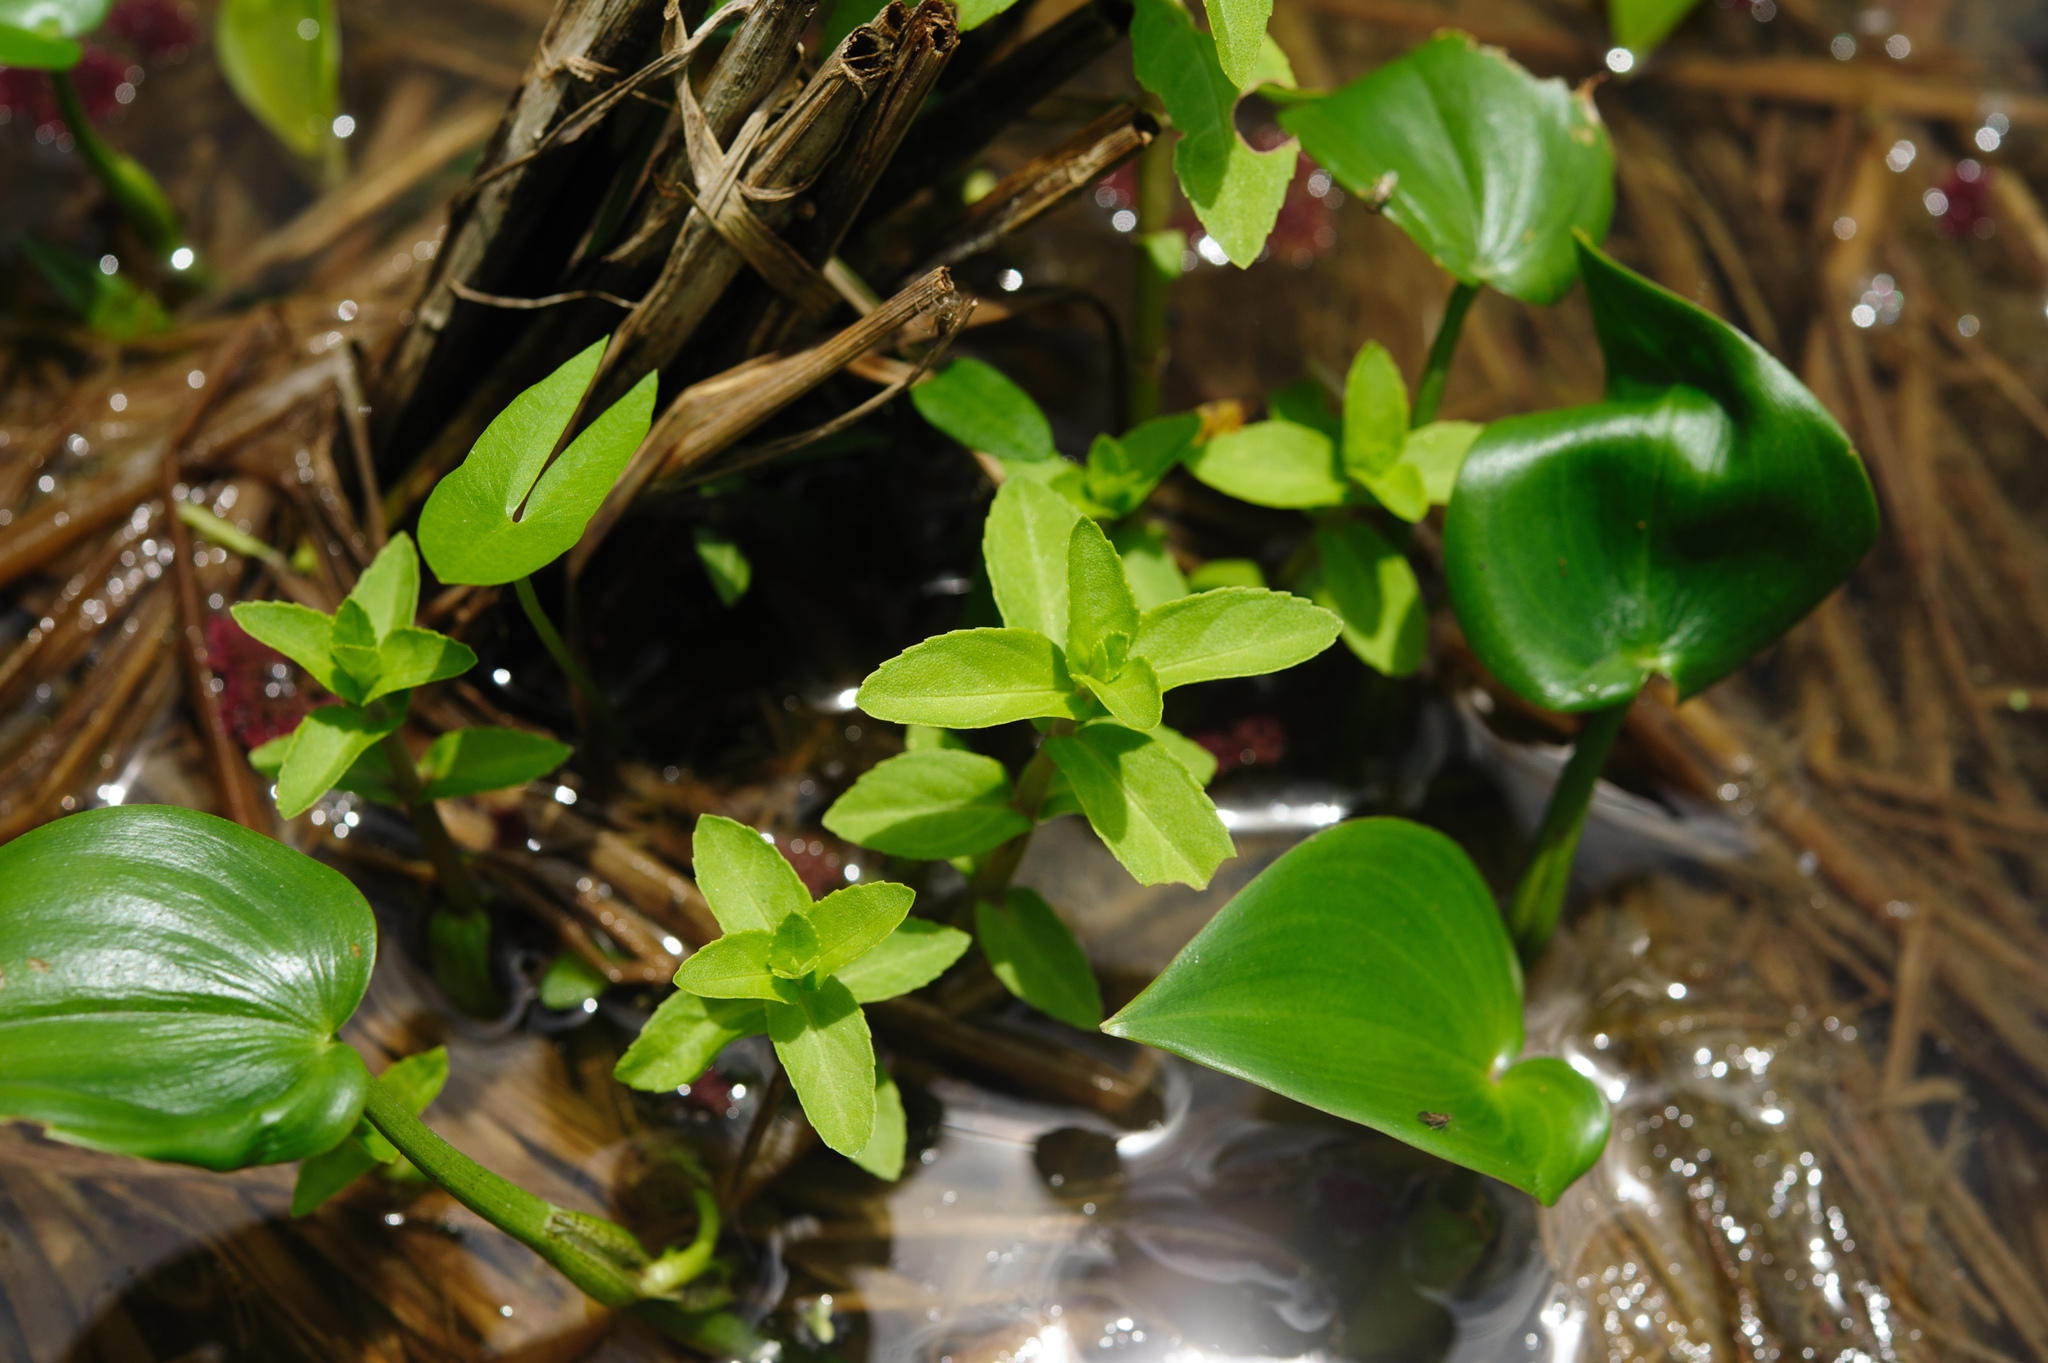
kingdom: Plantae
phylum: Tracheophyta
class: Magnoliopsida
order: Lamiales
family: Plantaginaceae
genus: Limnophila
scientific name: Limnophila aromatica
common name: Finger grass
